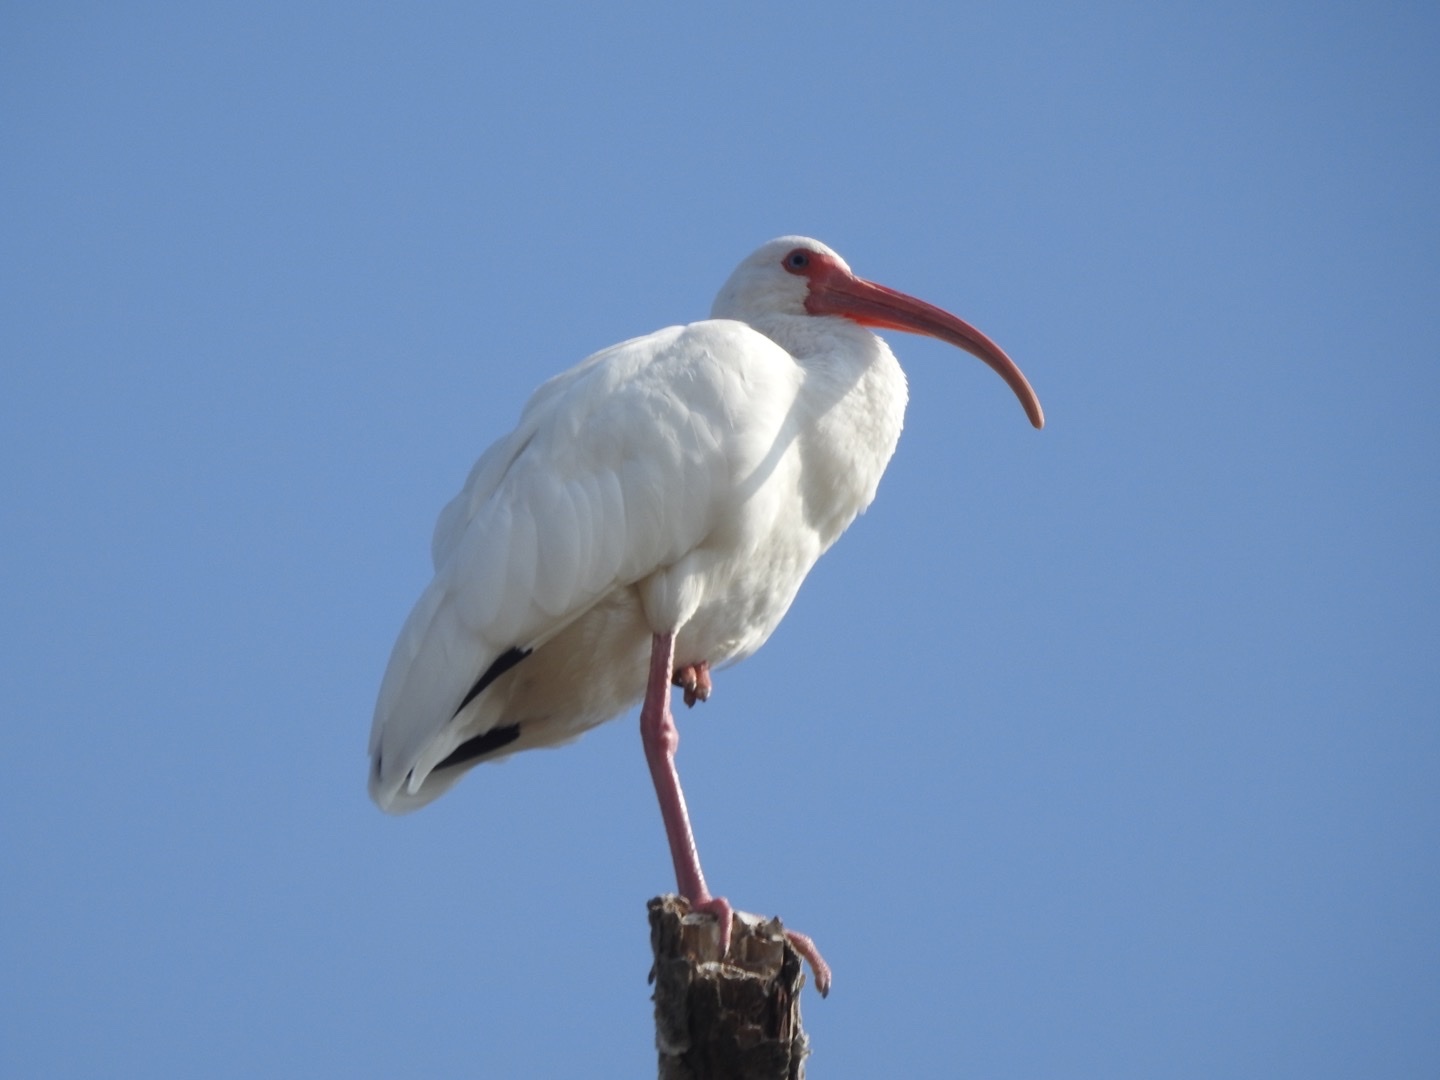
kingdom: Animalia
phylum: Chordata
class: Aves
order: Pelecaniformes
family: Threskiornithidae
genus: Eudocimus
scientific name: Eudocimus albus
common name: White ibis
